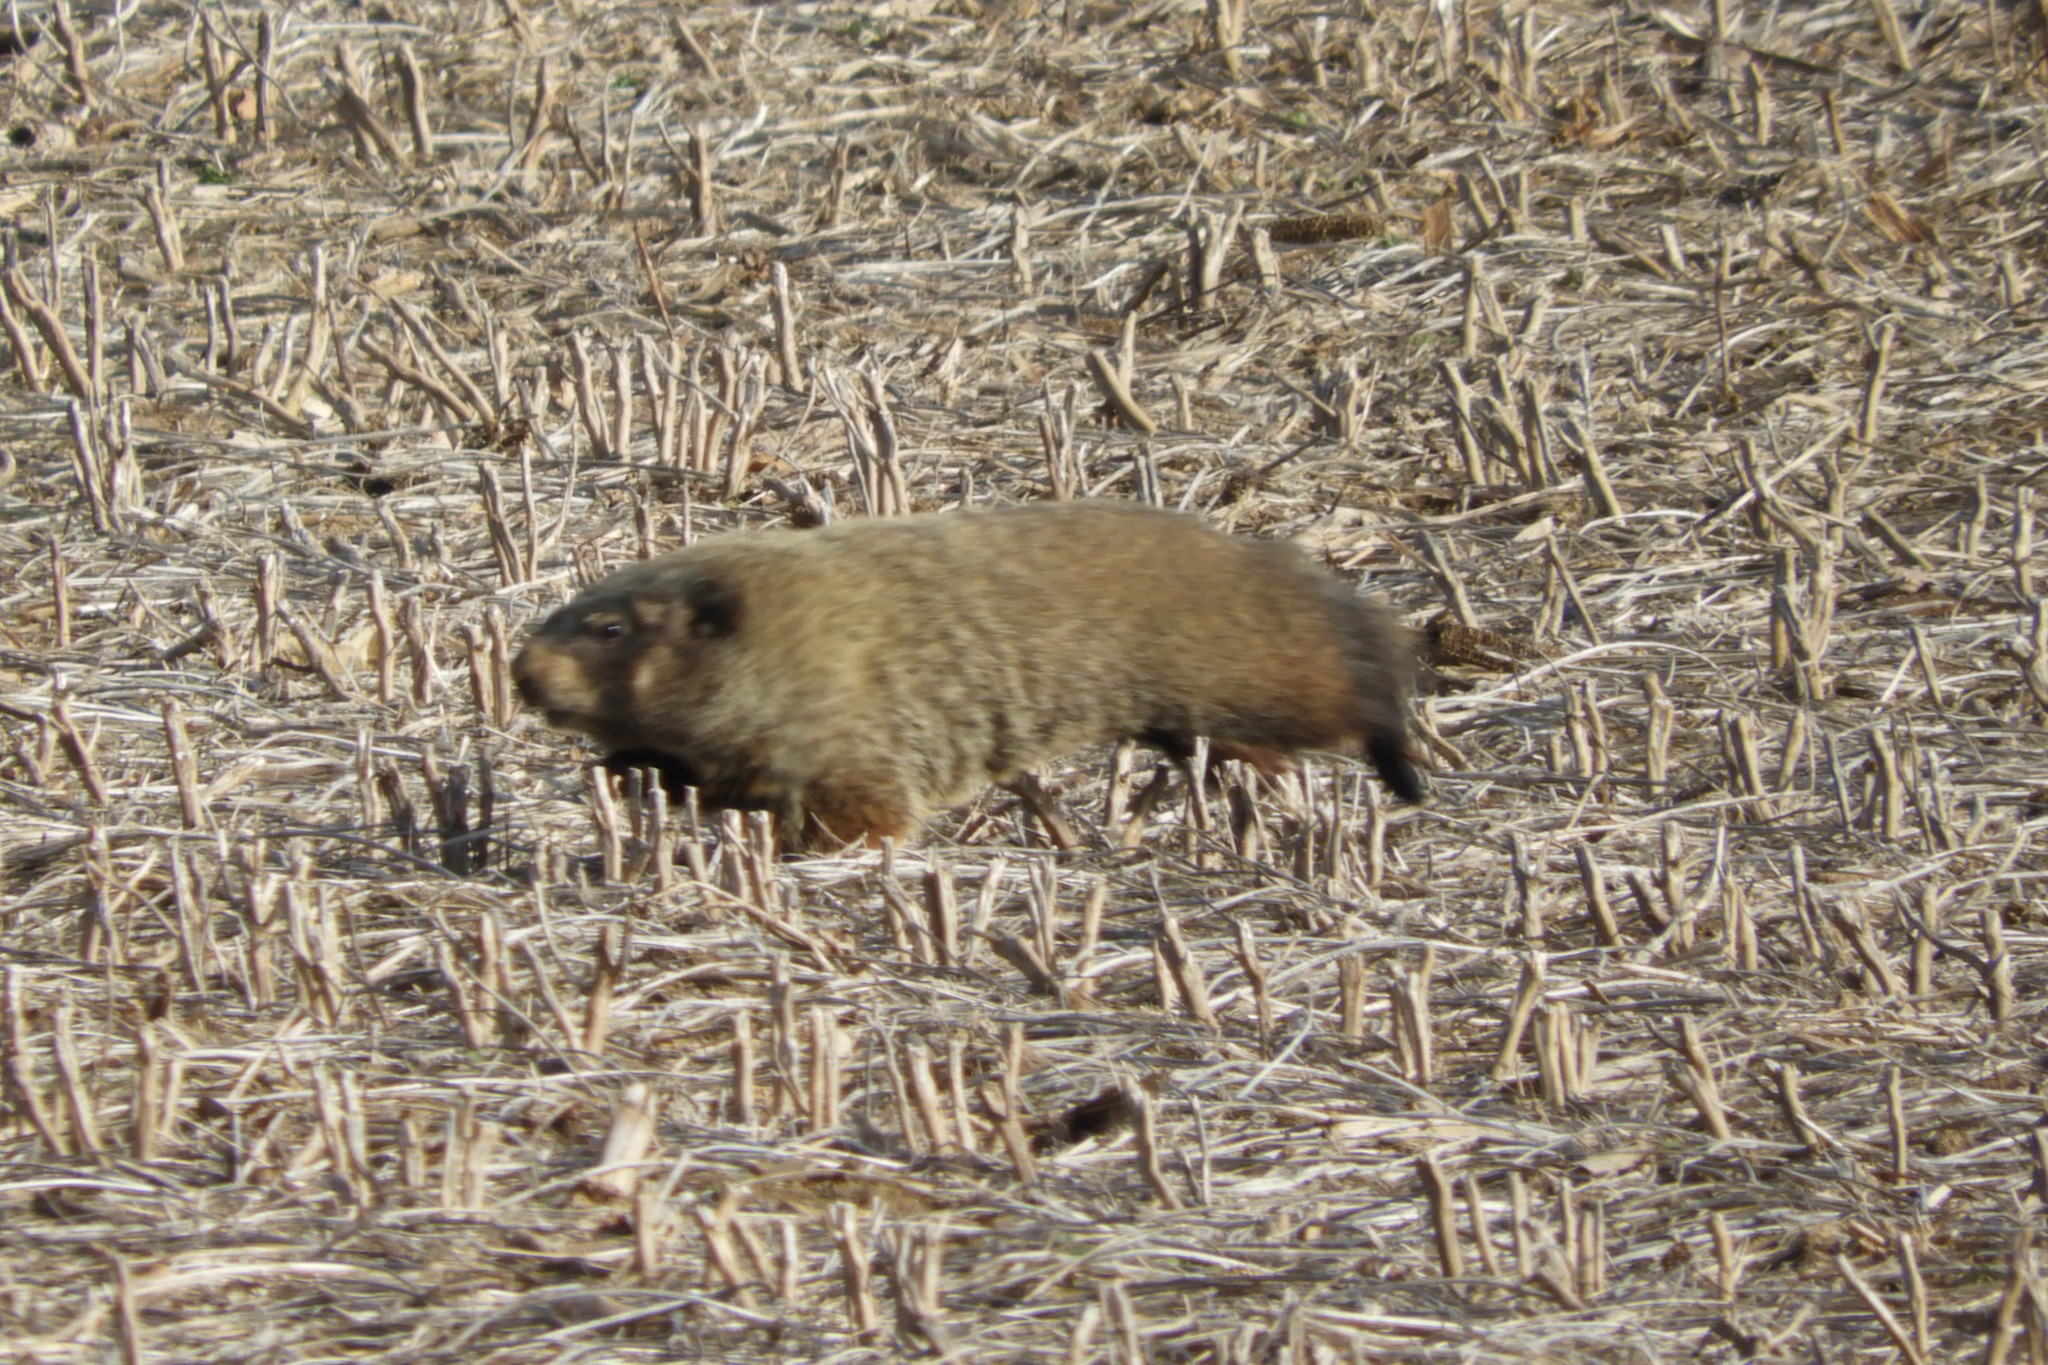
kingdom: Animalia
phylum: Chordata
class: Mammalia
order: Rodentia
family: Sciuridae
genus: Marmota
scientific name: Marmota monax
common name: Groundhog
